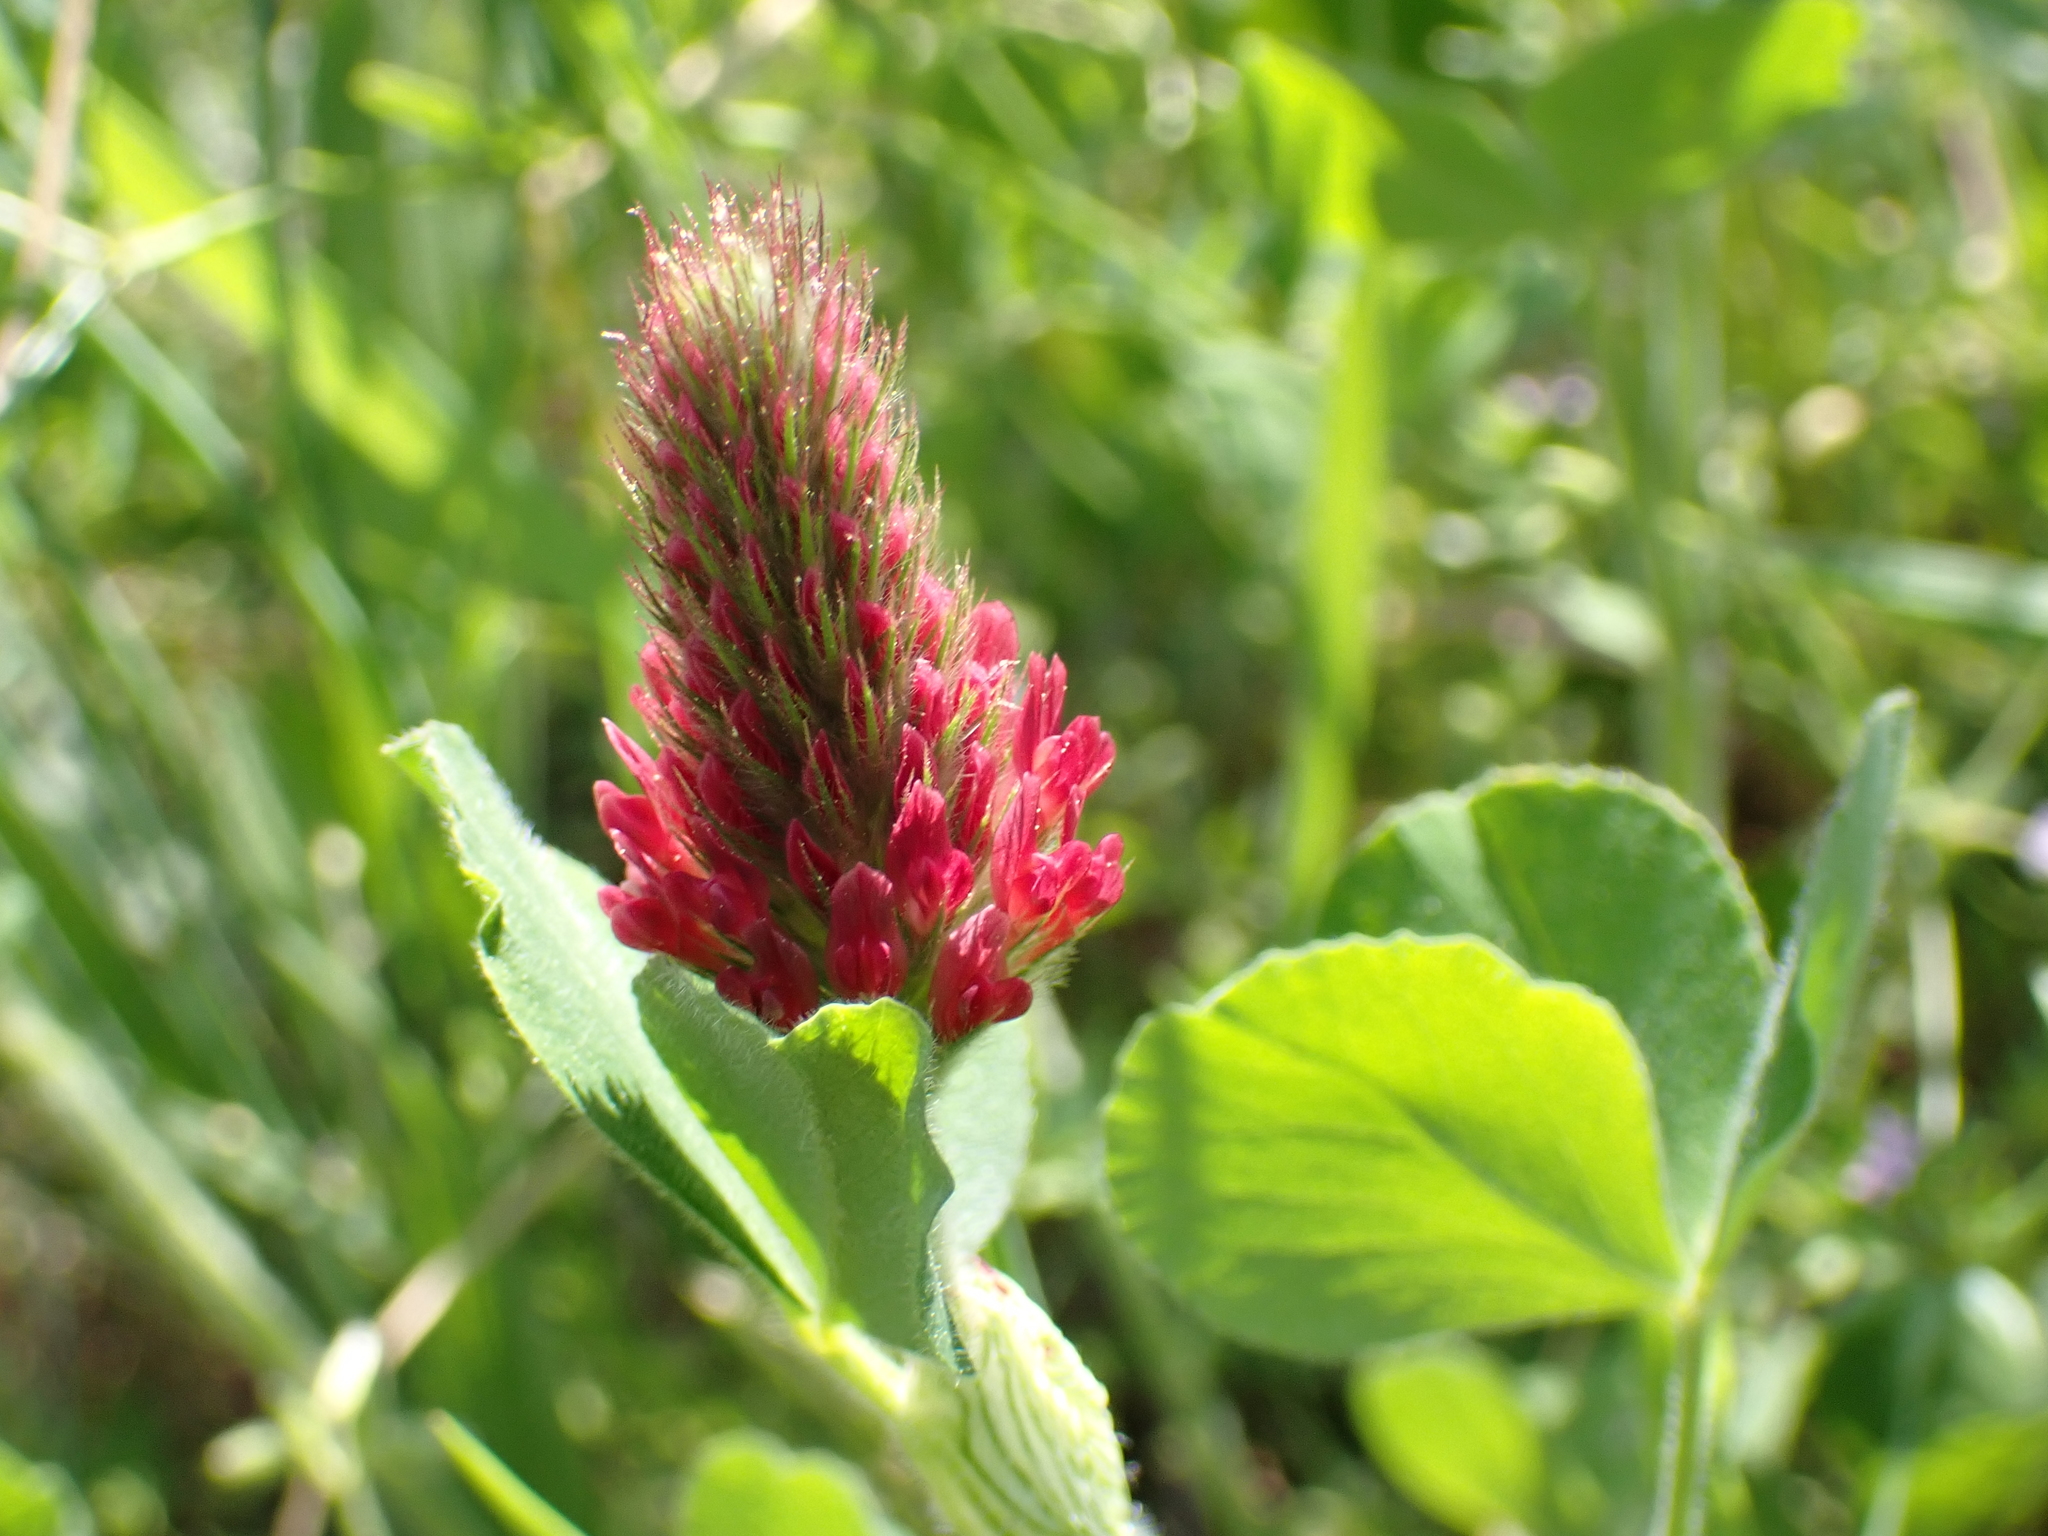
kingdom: Plantae
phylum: Tracheophyta
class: Magnoliopsida
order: Fabales
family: Fabaceae
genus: Trifolium
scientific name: Trifolium incarnatum
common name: Crimson clover
